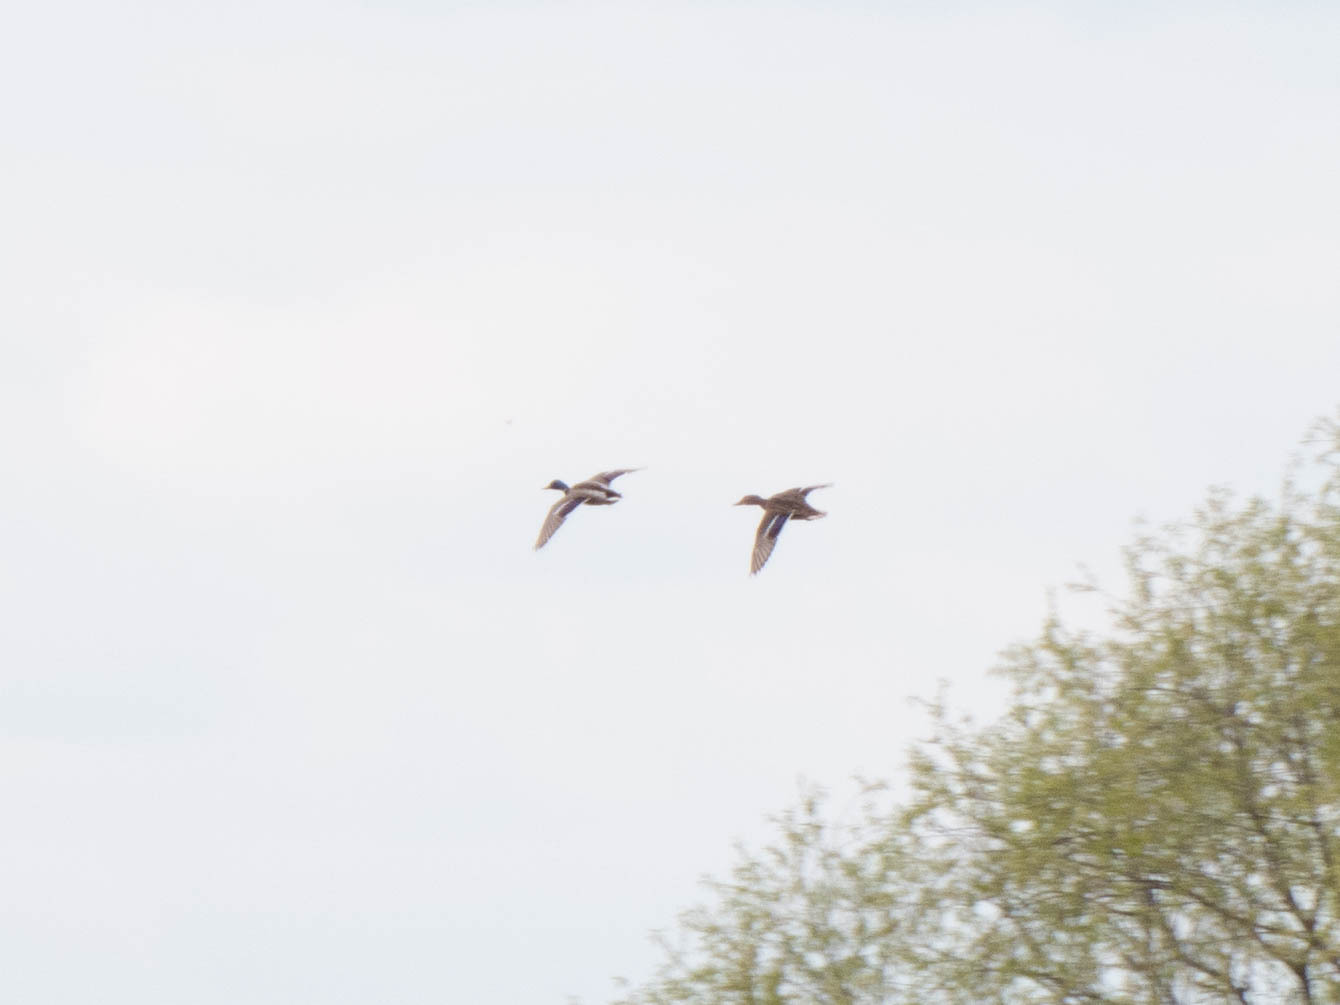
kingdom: Animalia
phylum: Chordata
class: Aves
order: Anseriformes
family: Anatidae
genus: Anas
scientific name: Anas platyrhynchos
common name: Mallard
